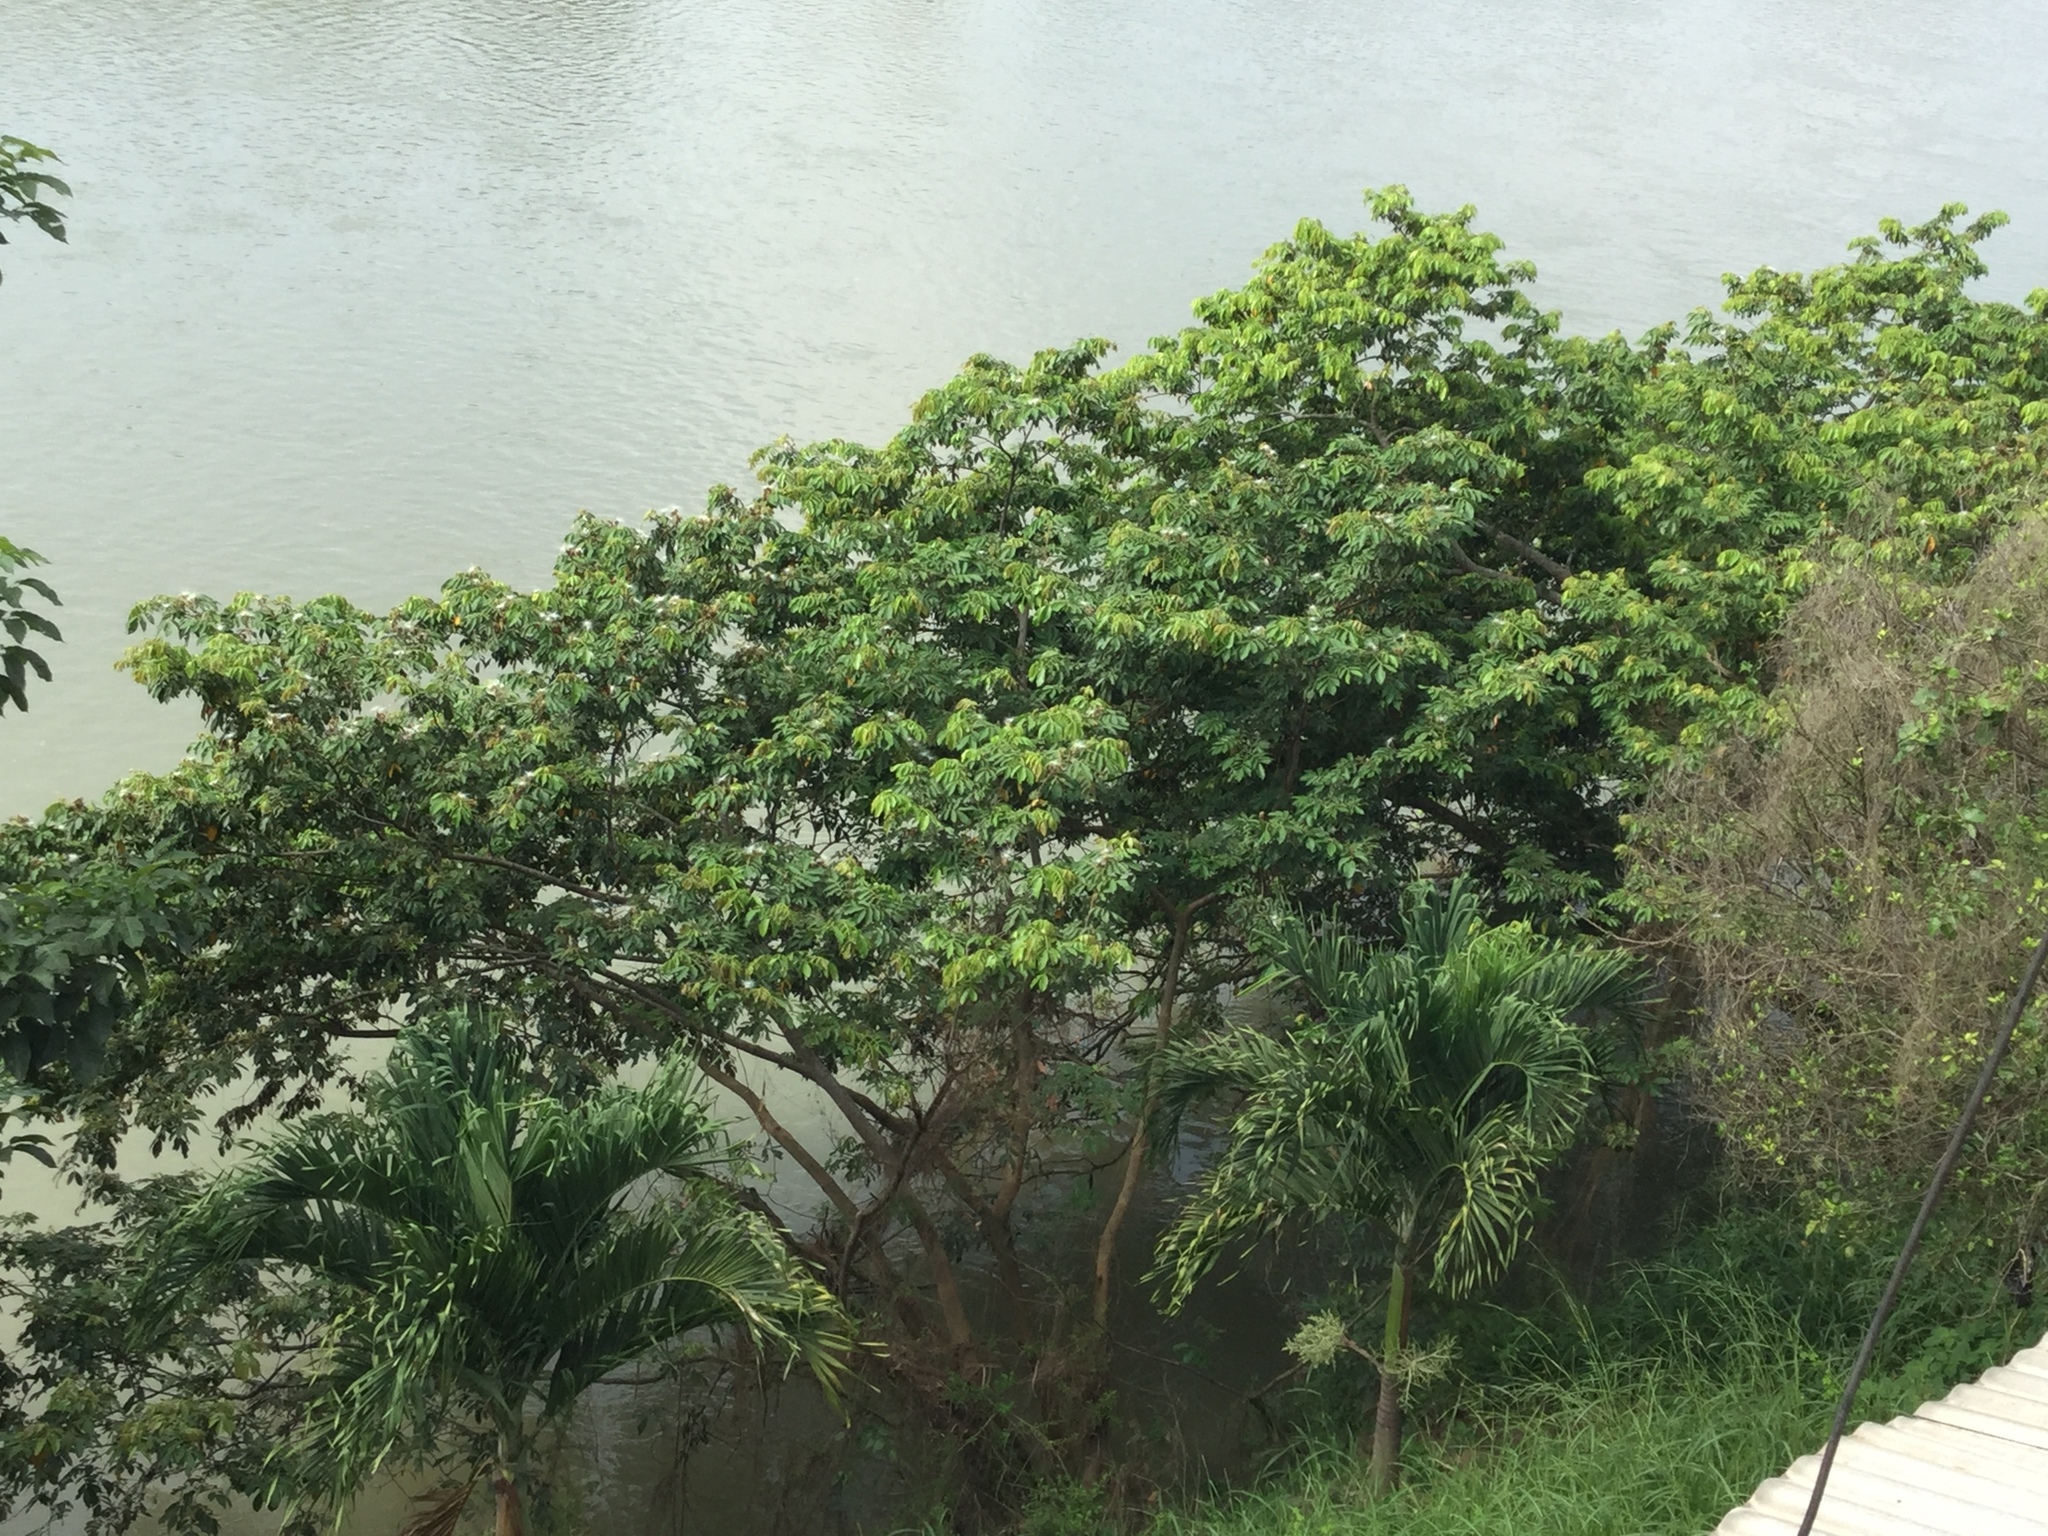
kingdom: Plantae
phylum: Tracheophyta
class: Magnoliopsida
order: Fabales
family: Fabaceae
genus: Inga
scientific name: Inga vera
